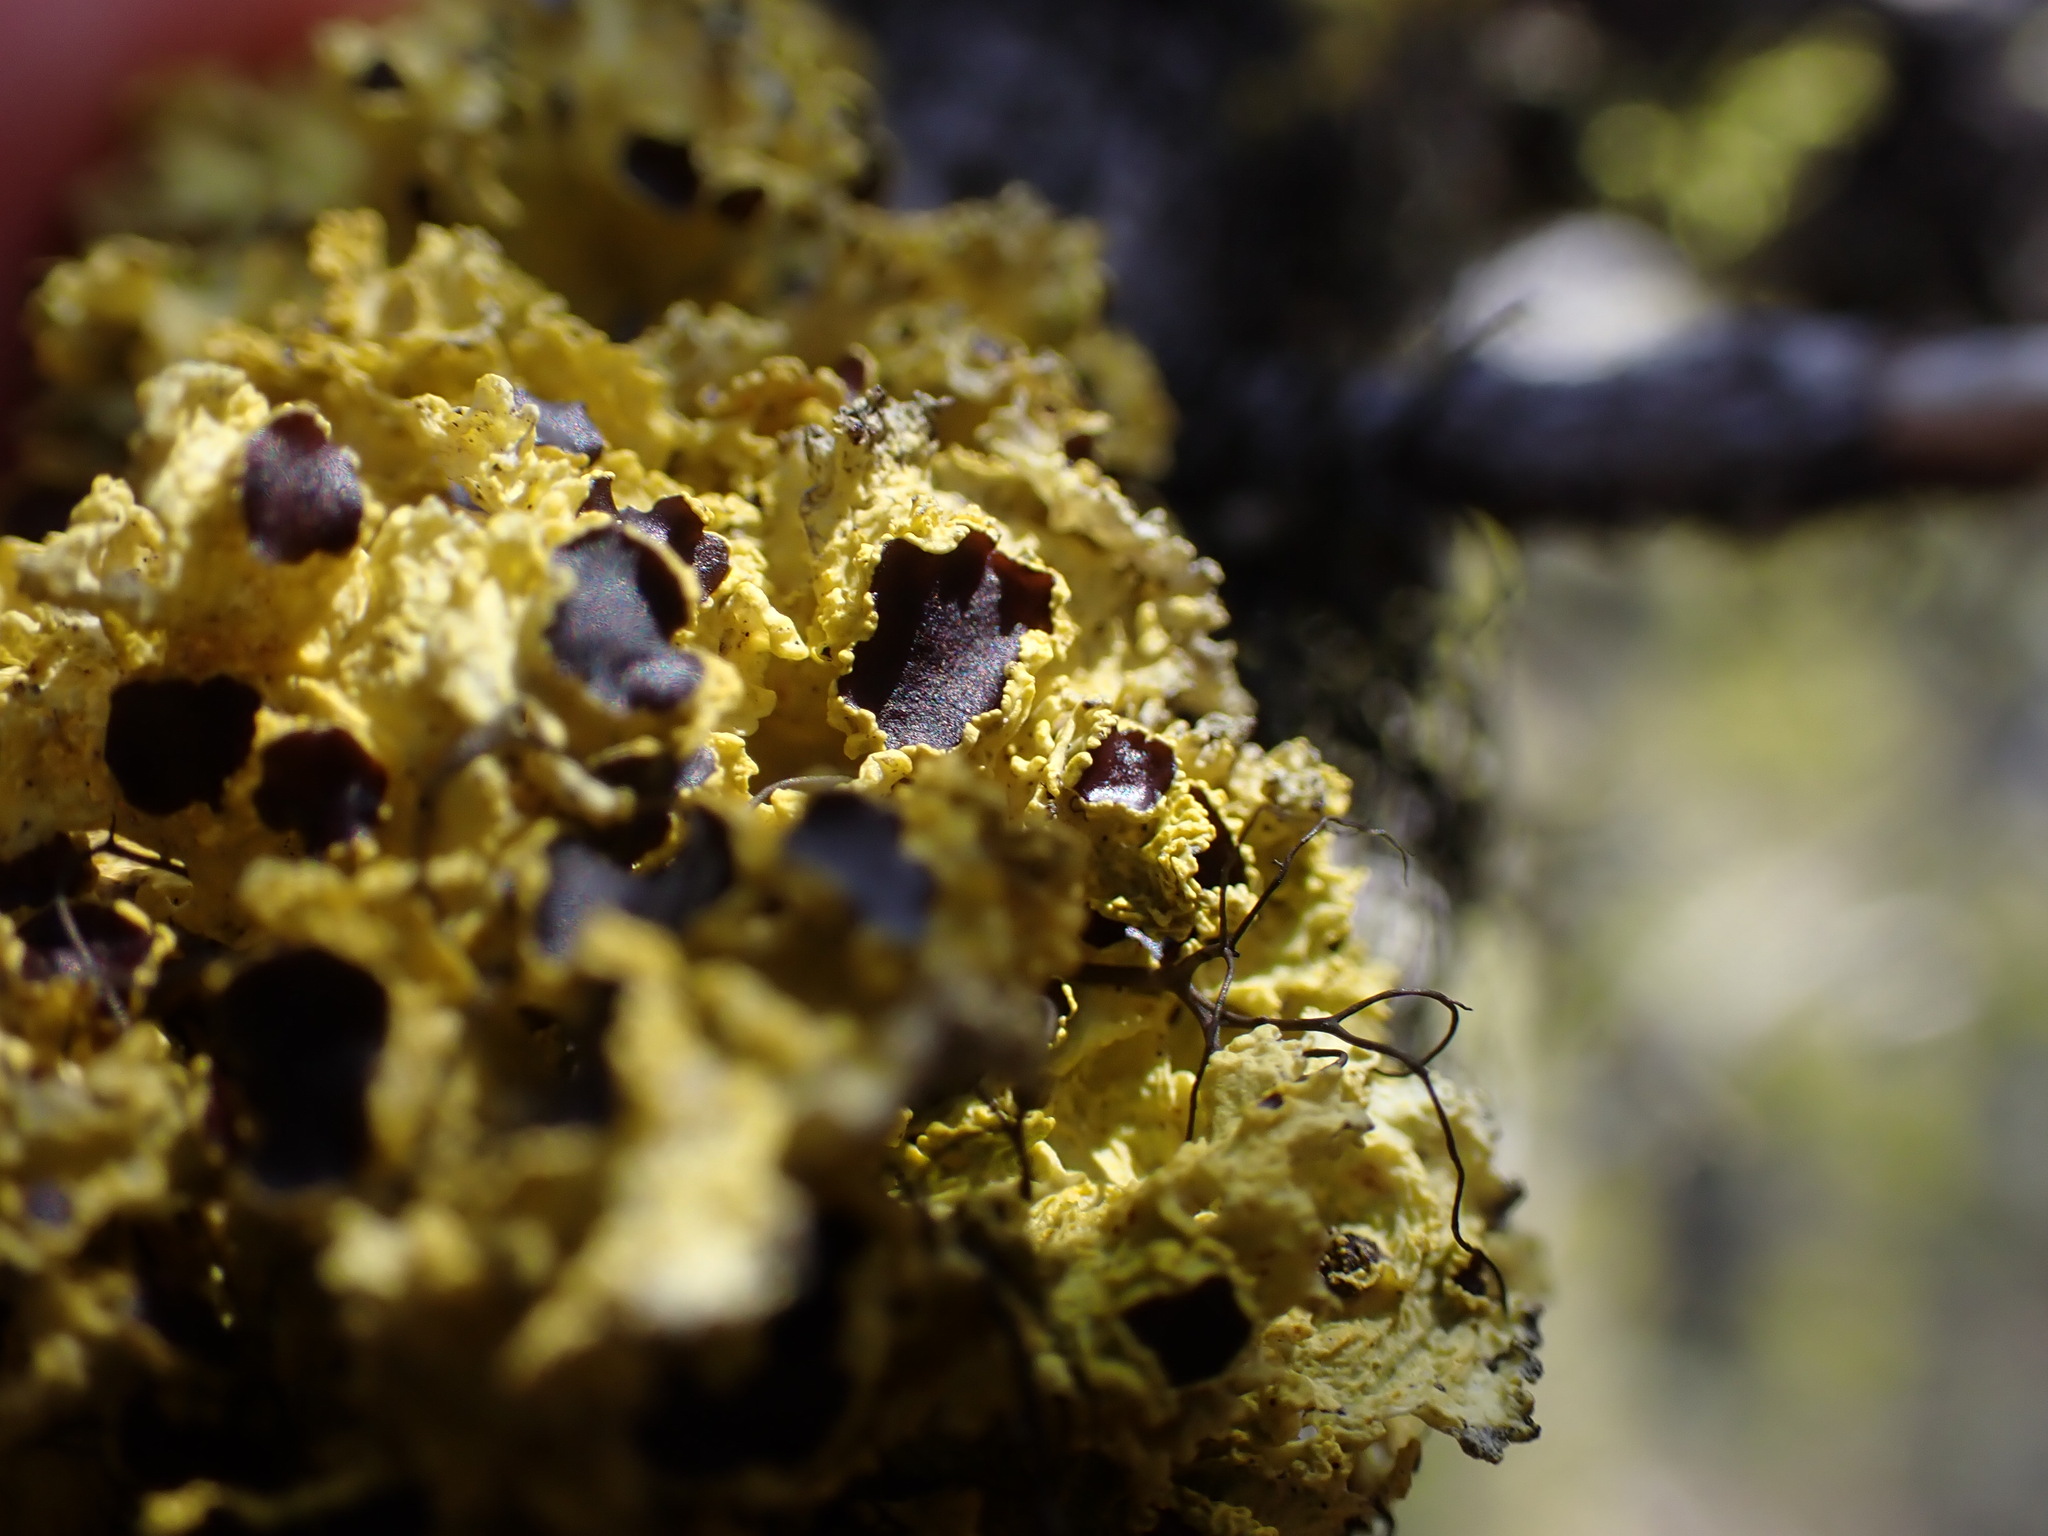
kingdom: Fungi
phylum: Ascomycota
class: Lecanoromycetes
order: Lecanorales
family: Parmeliaceae
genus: Vulpicida
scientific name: Vulpicida canadensis
